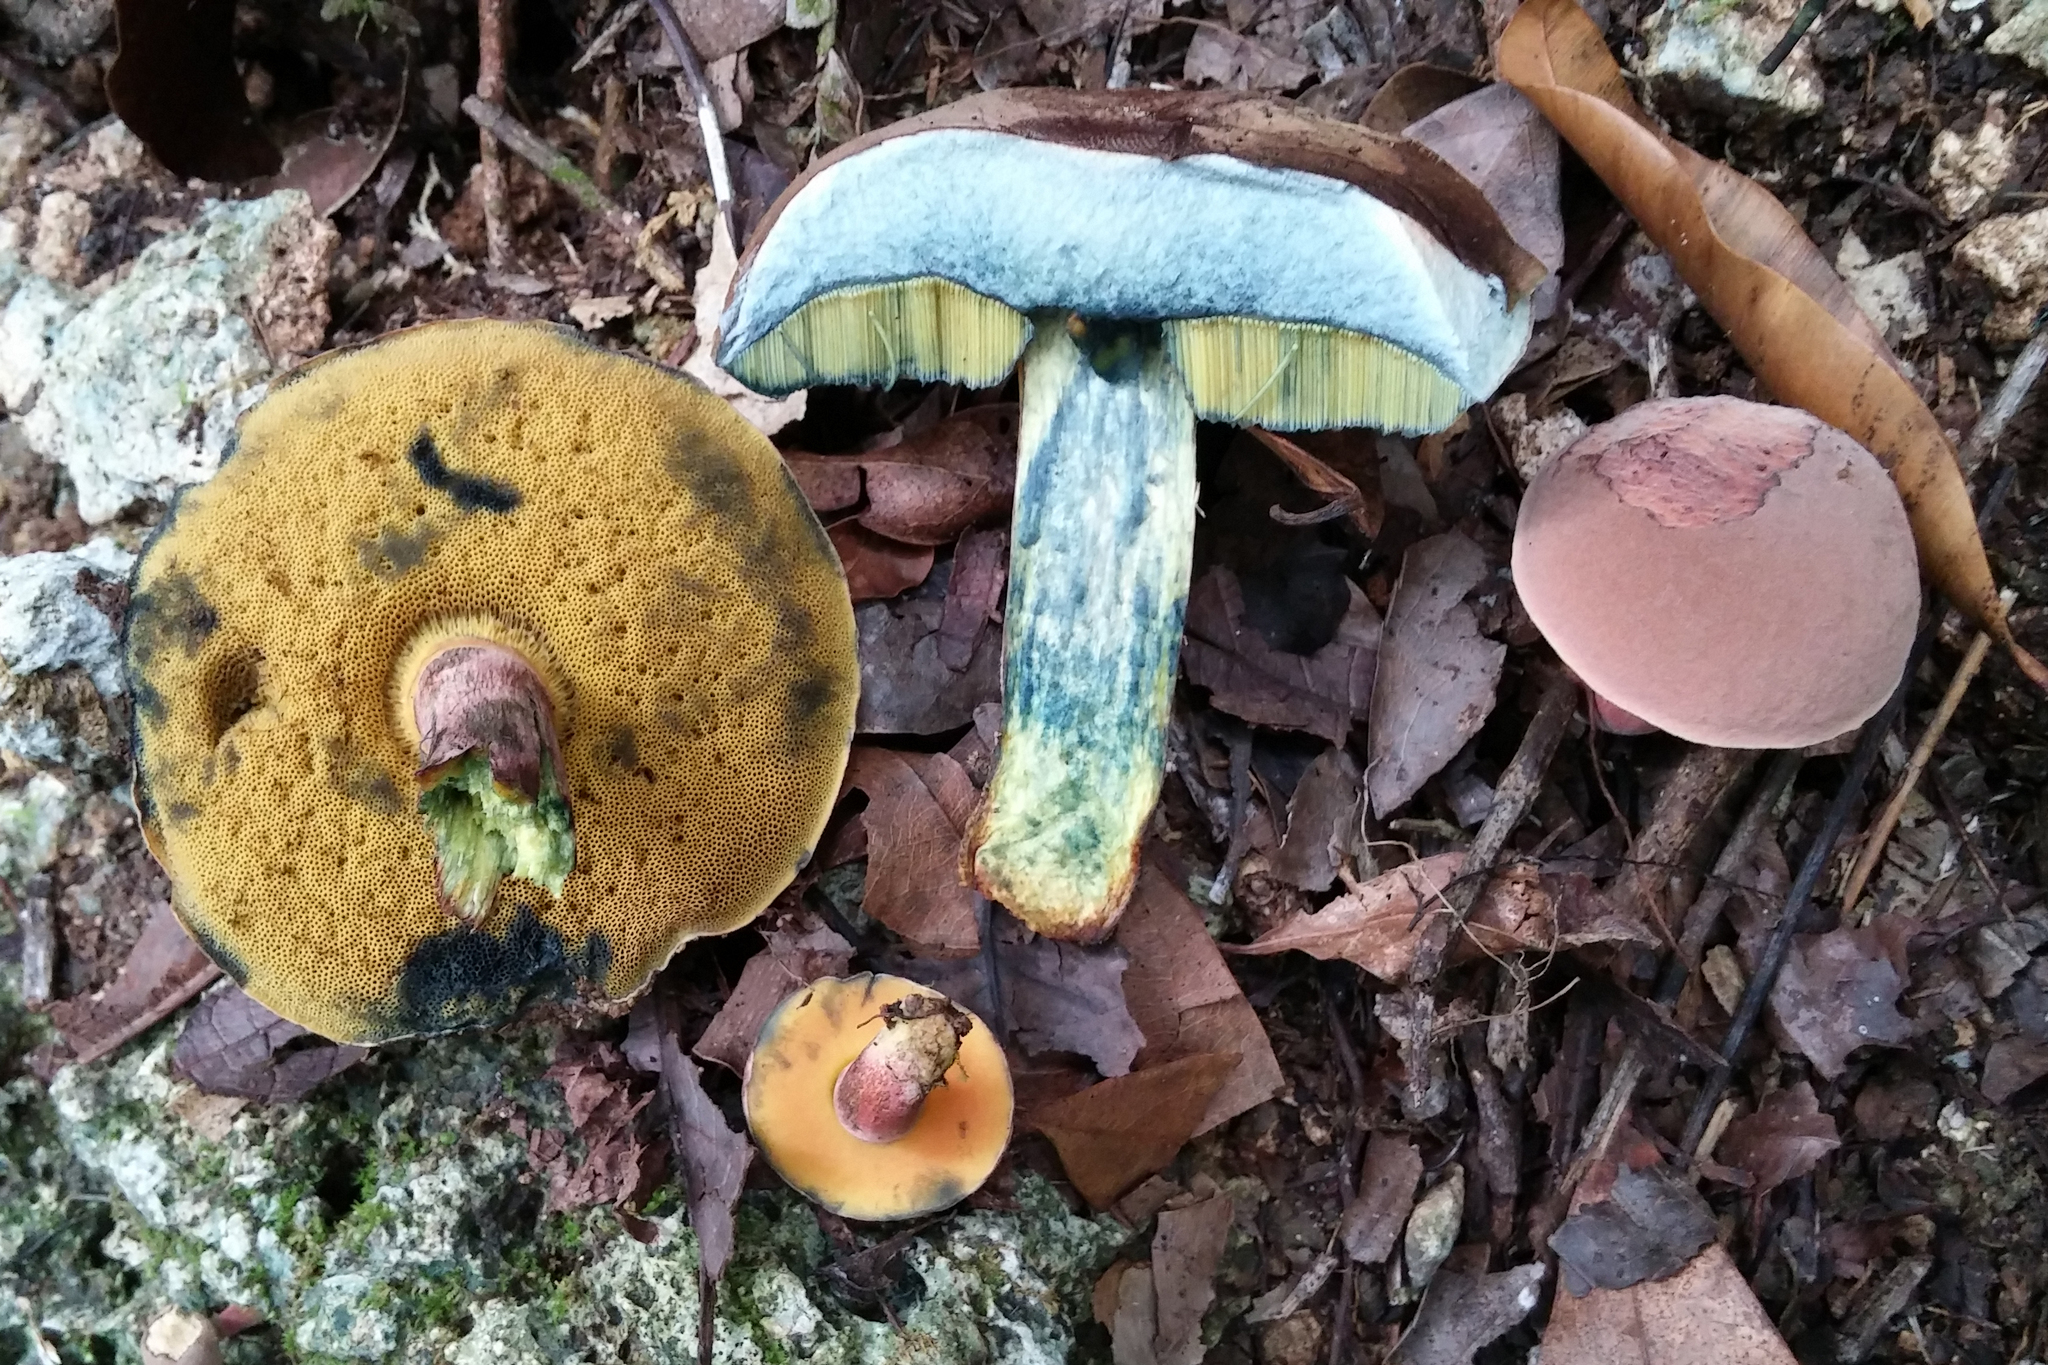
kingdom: Fungi
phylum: Basidiomycota
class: Agaricomycetes
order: Boletales
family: Boletaceae
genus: Neoboletus
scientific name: Neoboletus antillanus
